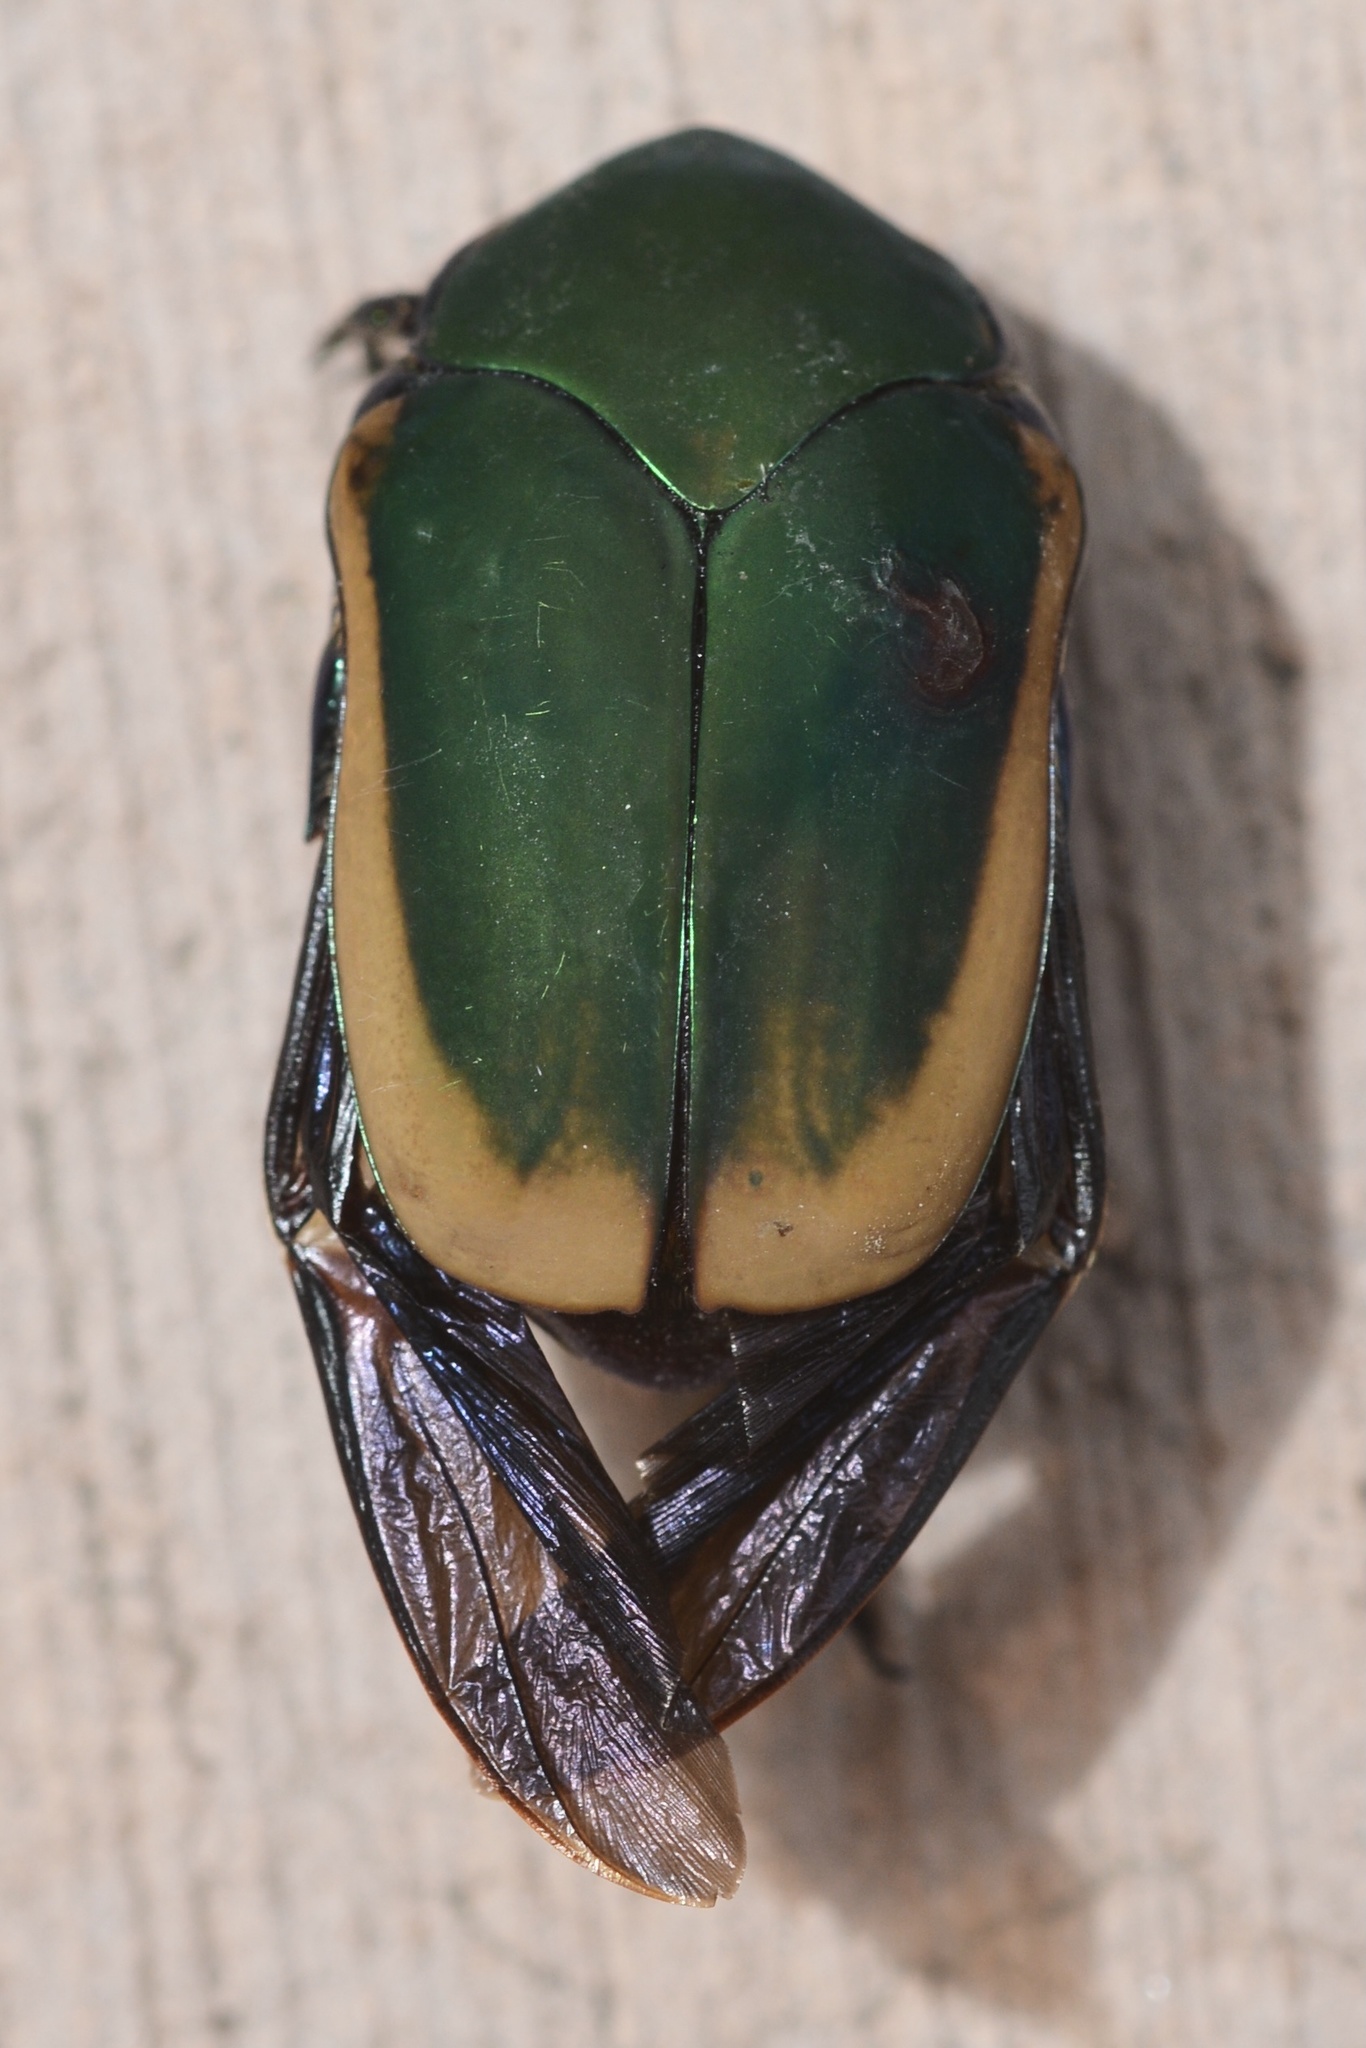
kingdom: Animalia
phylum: Arthropoda
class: Insecta
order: Coleoptera
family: Scarabaeidae
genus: Cotinis
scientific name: Cotinis mutabilis
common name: Figeater beetle
